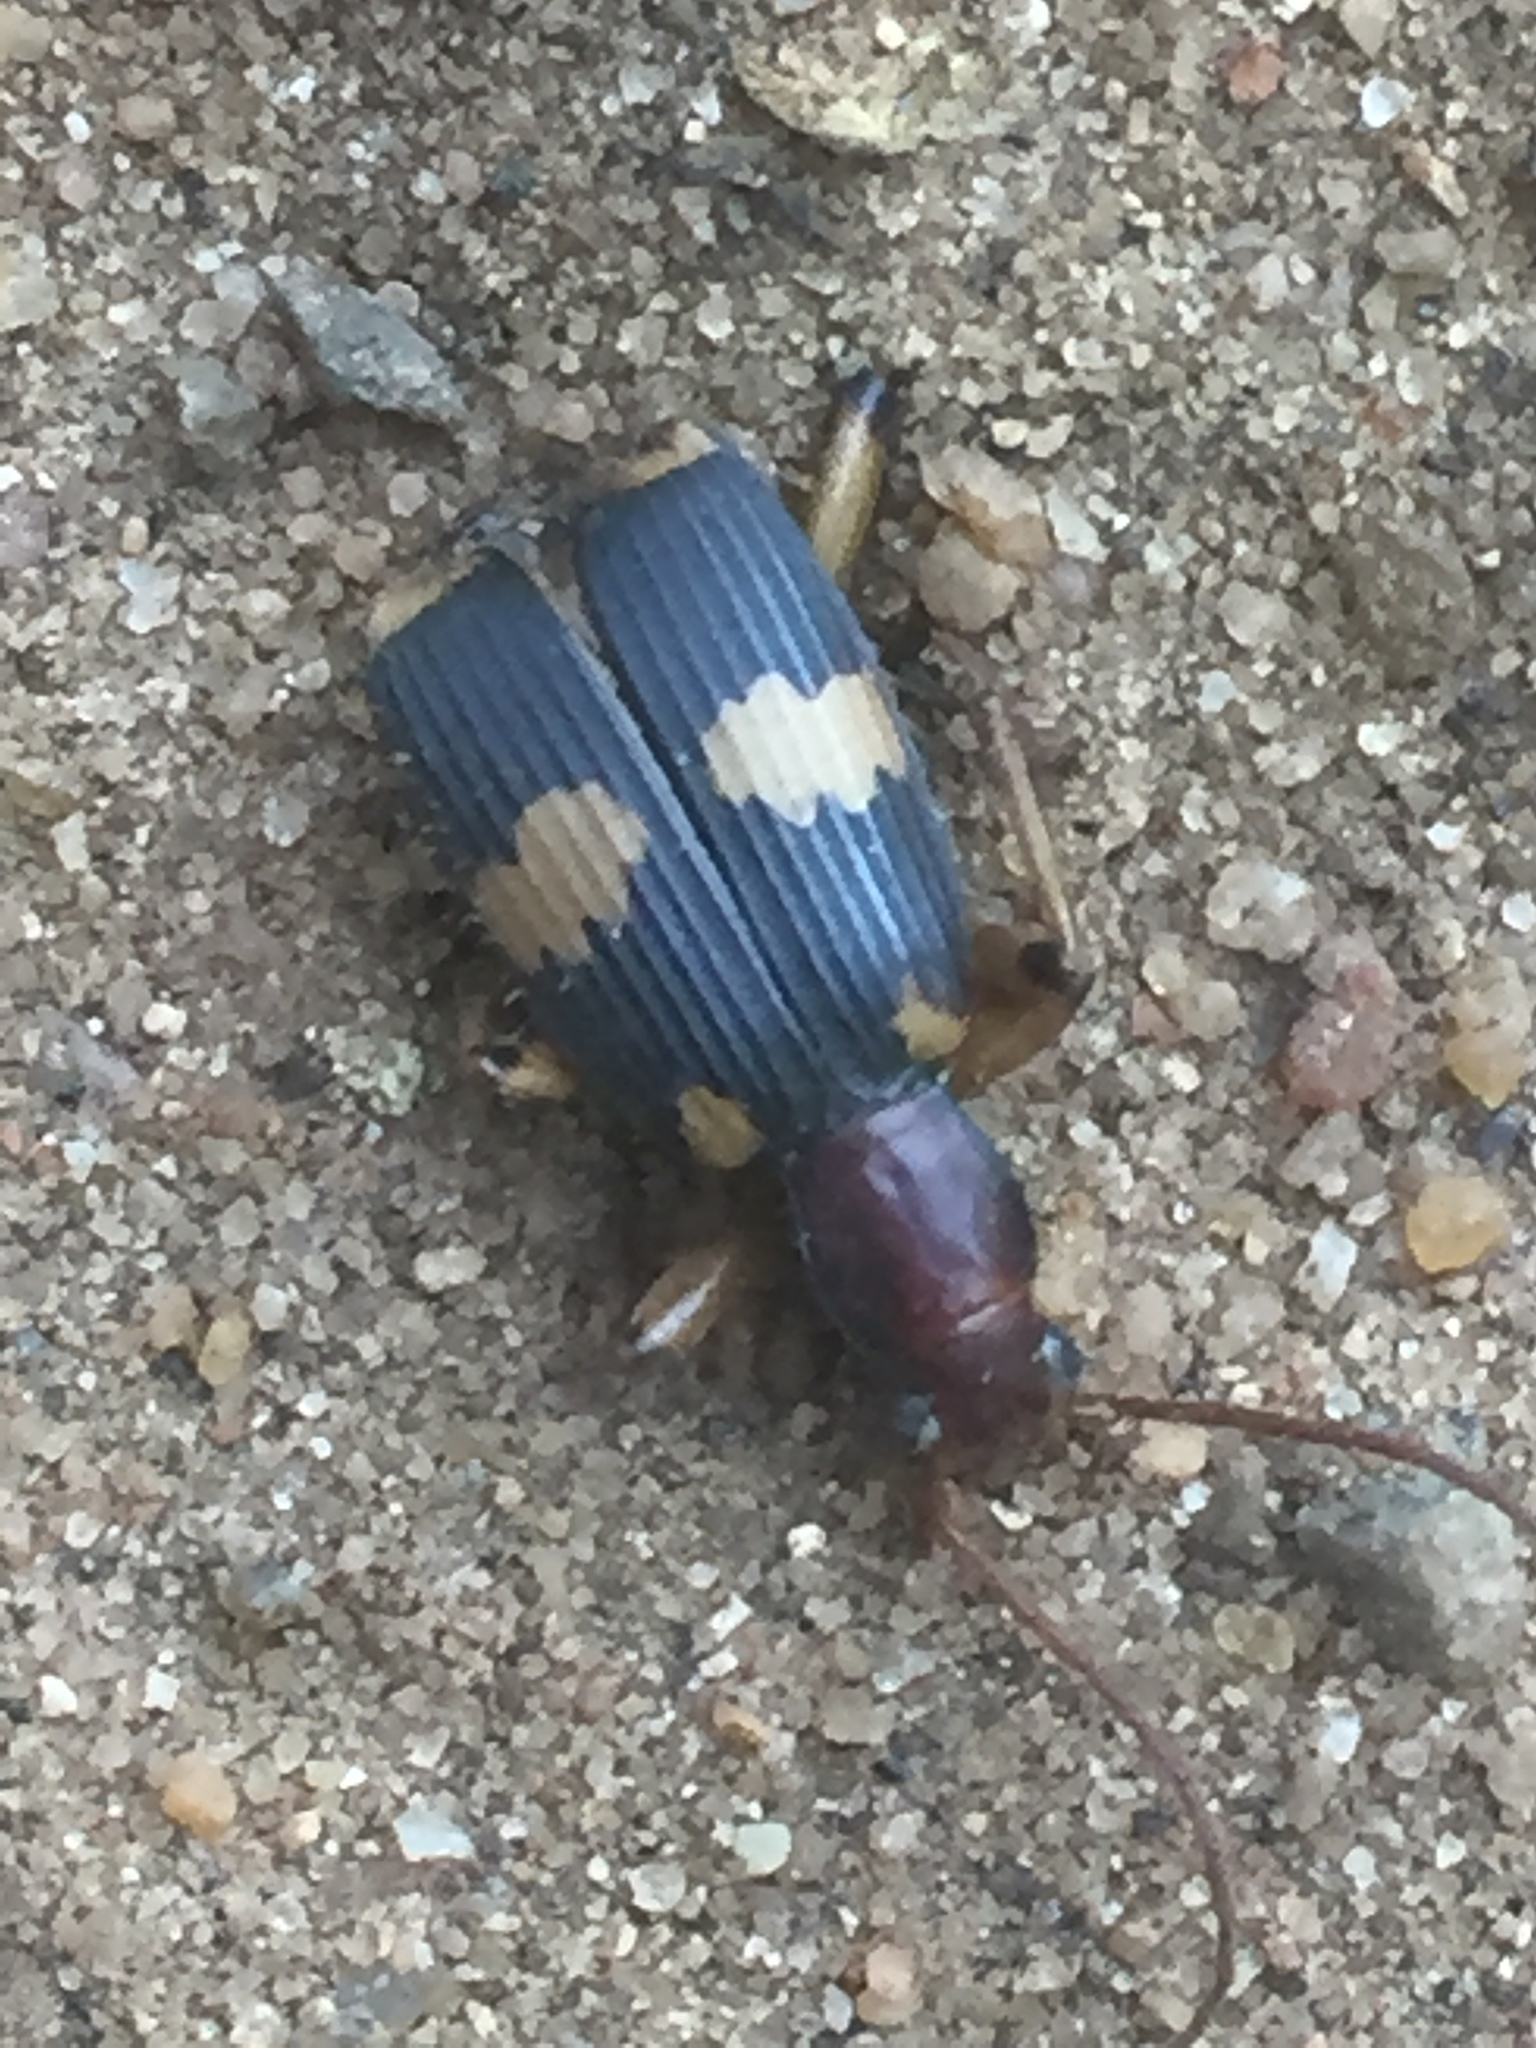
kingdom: Animalia
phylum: Arthropoda
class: Insecta
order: Coleoptera
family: Carabidae
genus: Pheropsophus
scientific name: Pheropsophus lissoderus
